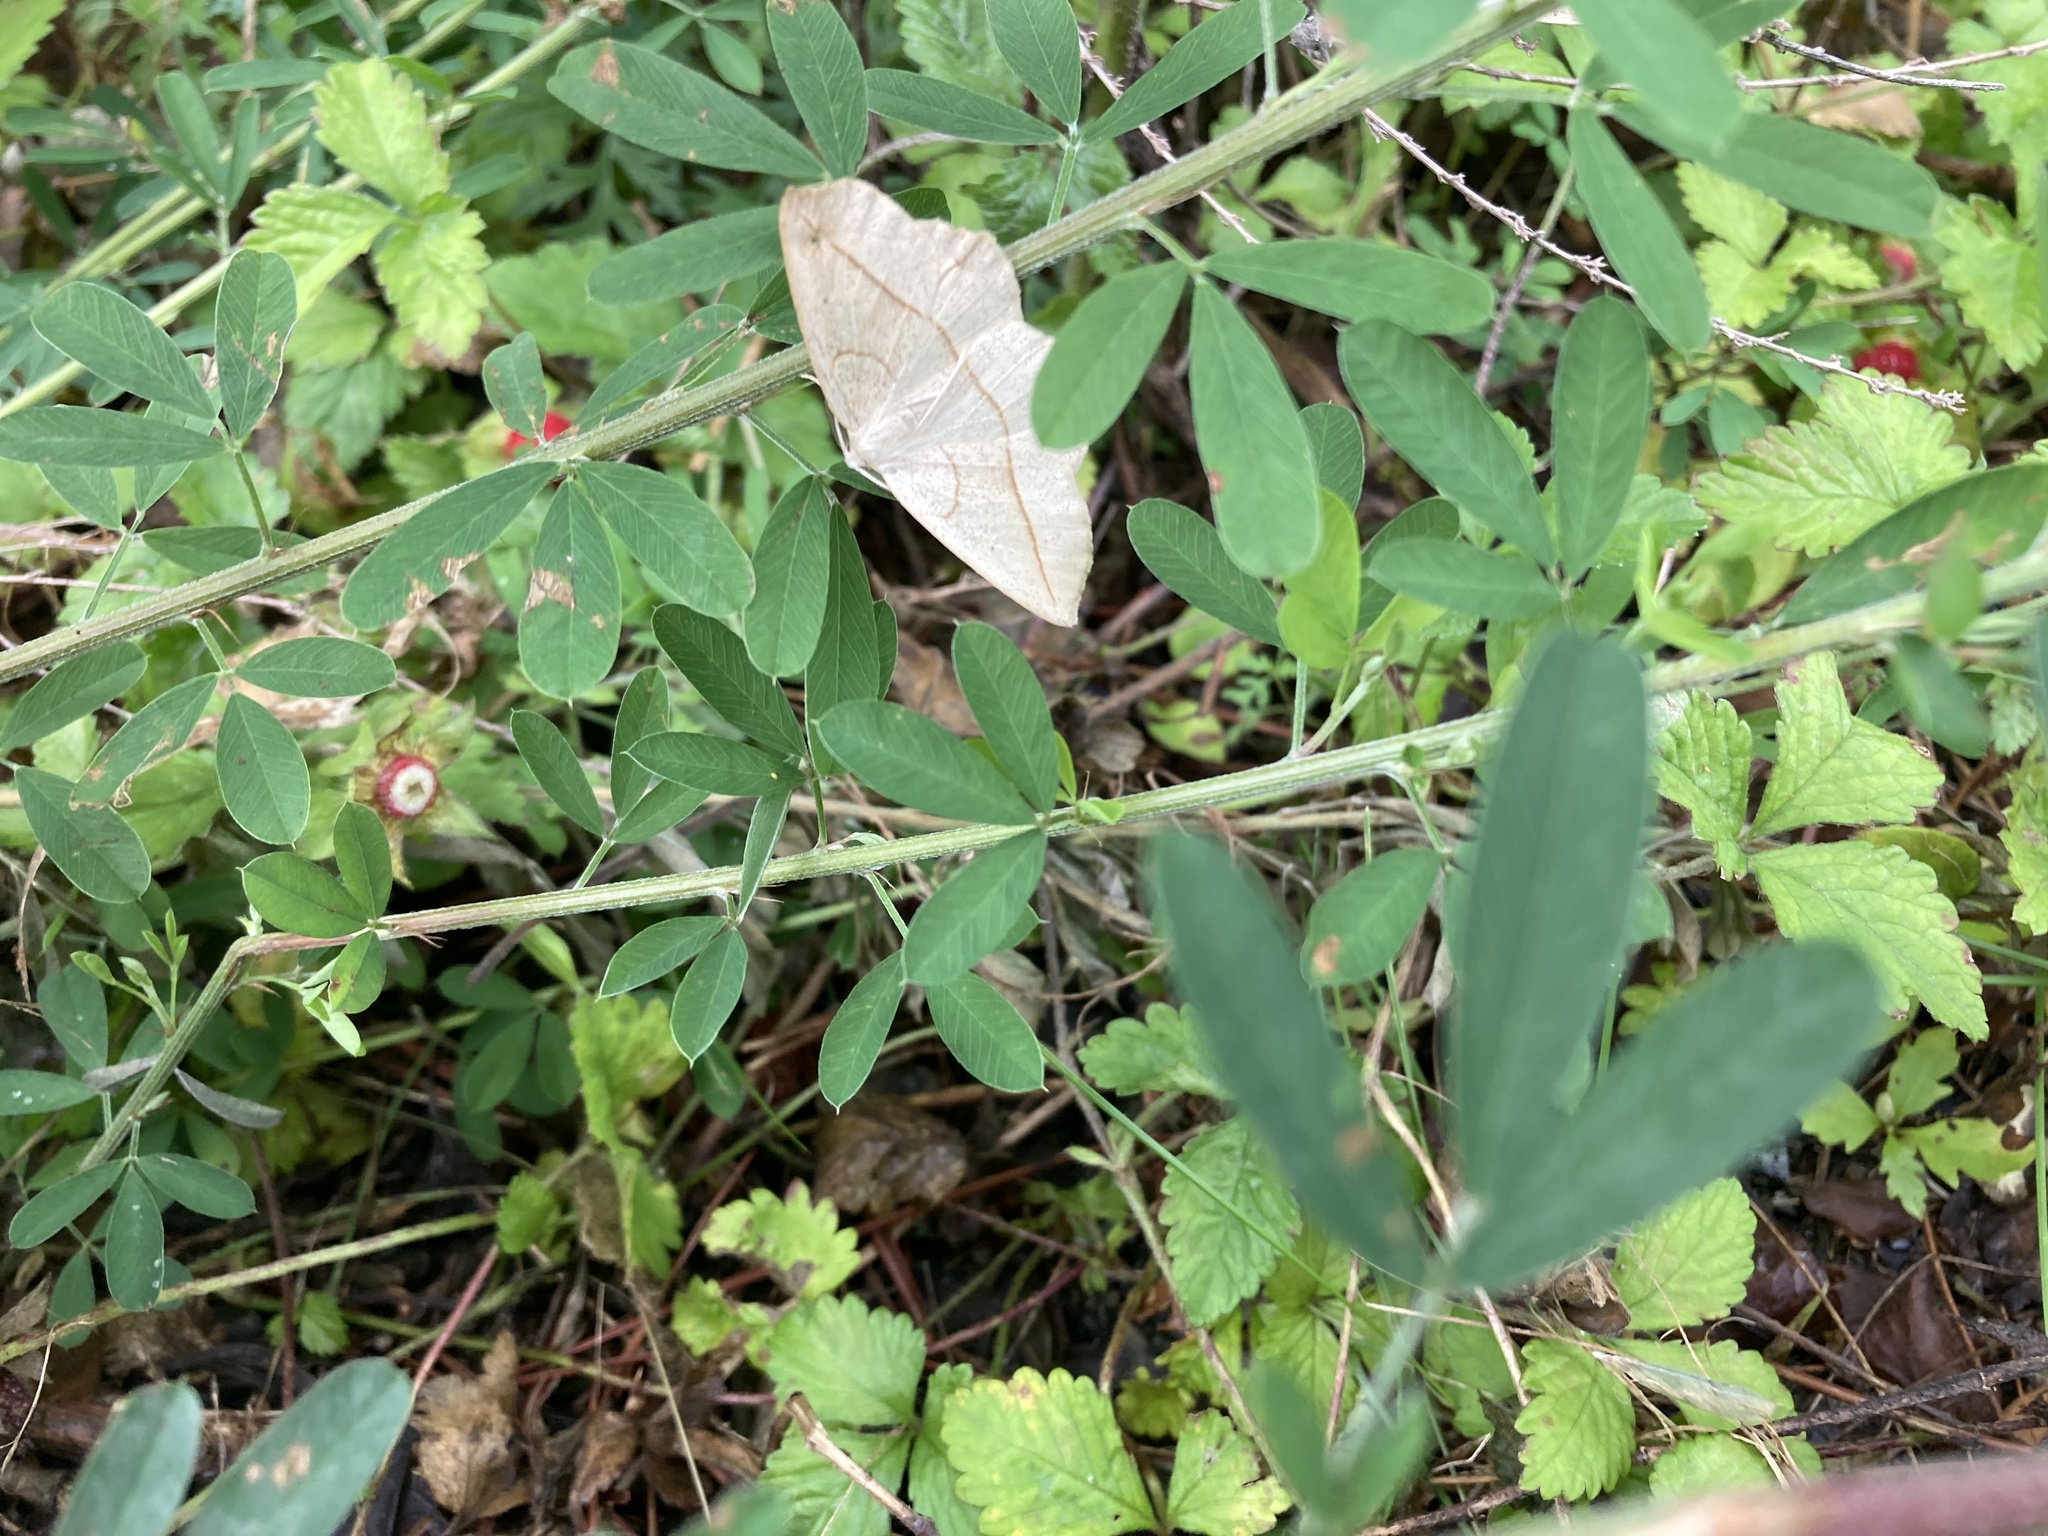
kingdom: Animalia
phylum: Arthropoda
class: Insecta
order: Lepidoptera
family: Geometridae
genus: Eusarca
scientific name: Eusarca confusaria
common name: Confused eusarca
